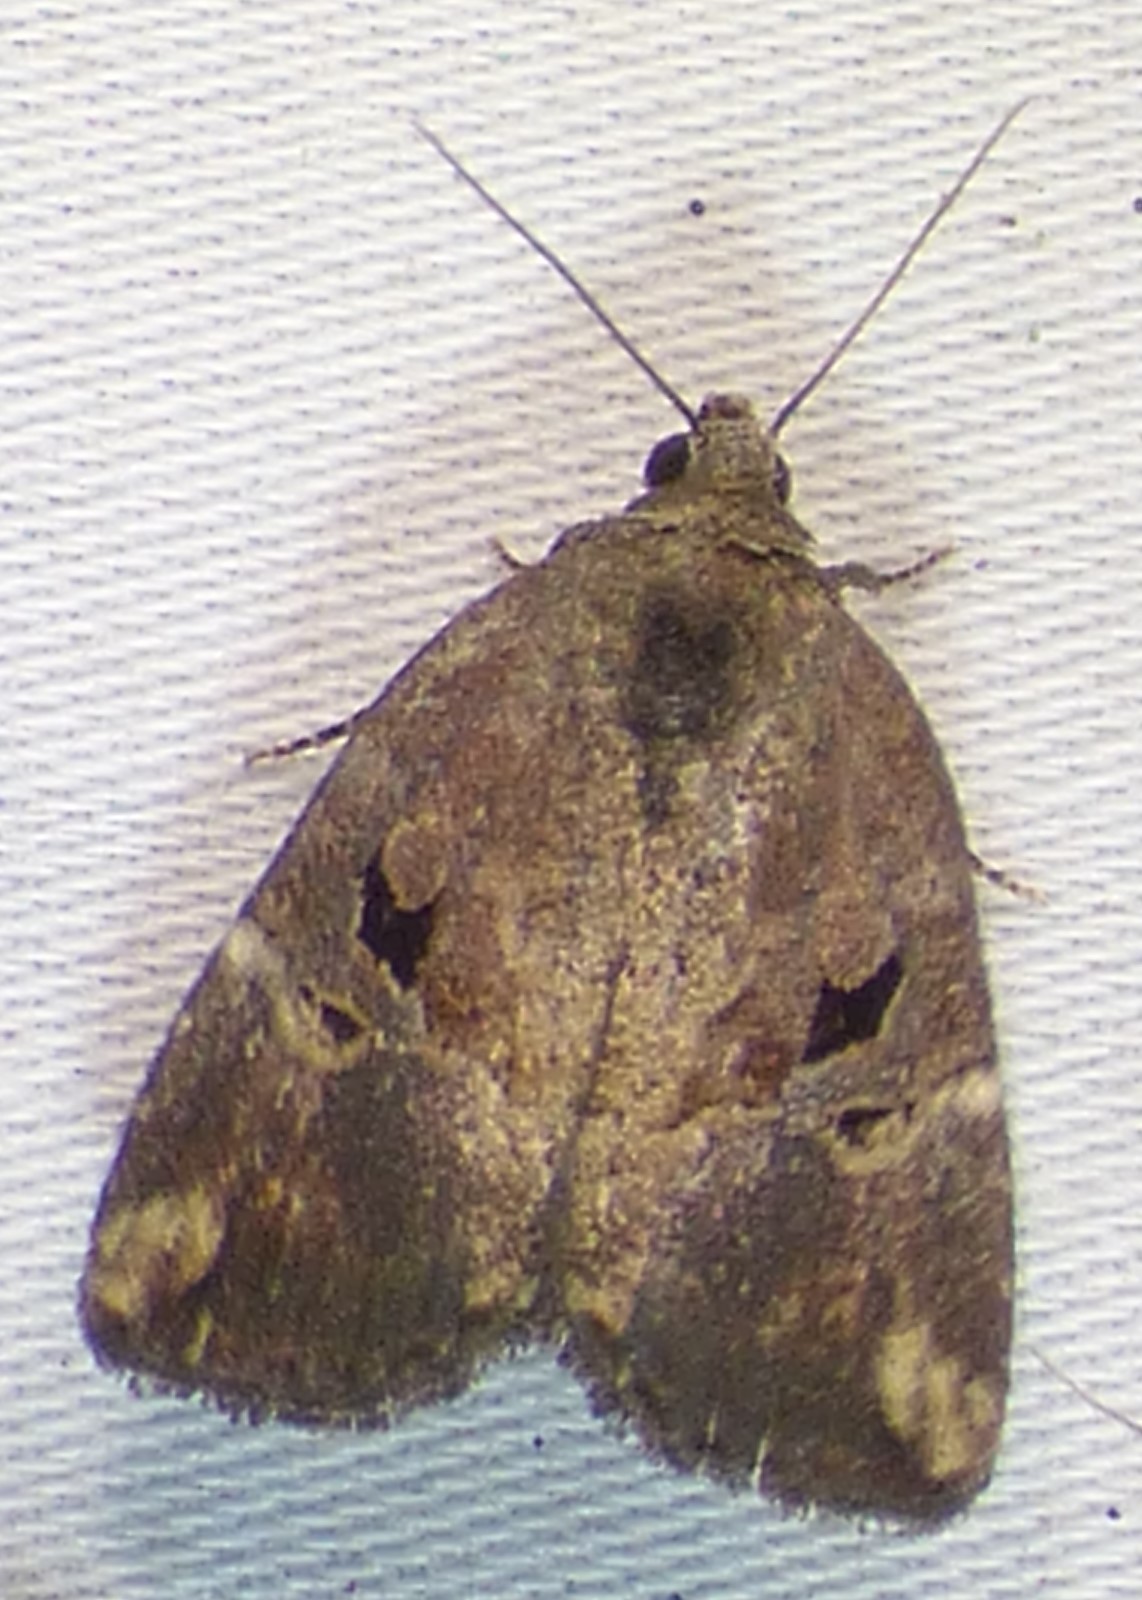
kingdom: Animalia
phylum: Arthropoda
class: Insecta
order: Lepidoptera
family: Noctuidae
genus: Elaphria
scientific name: Elaphria versicolor
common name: Fir harlequin
